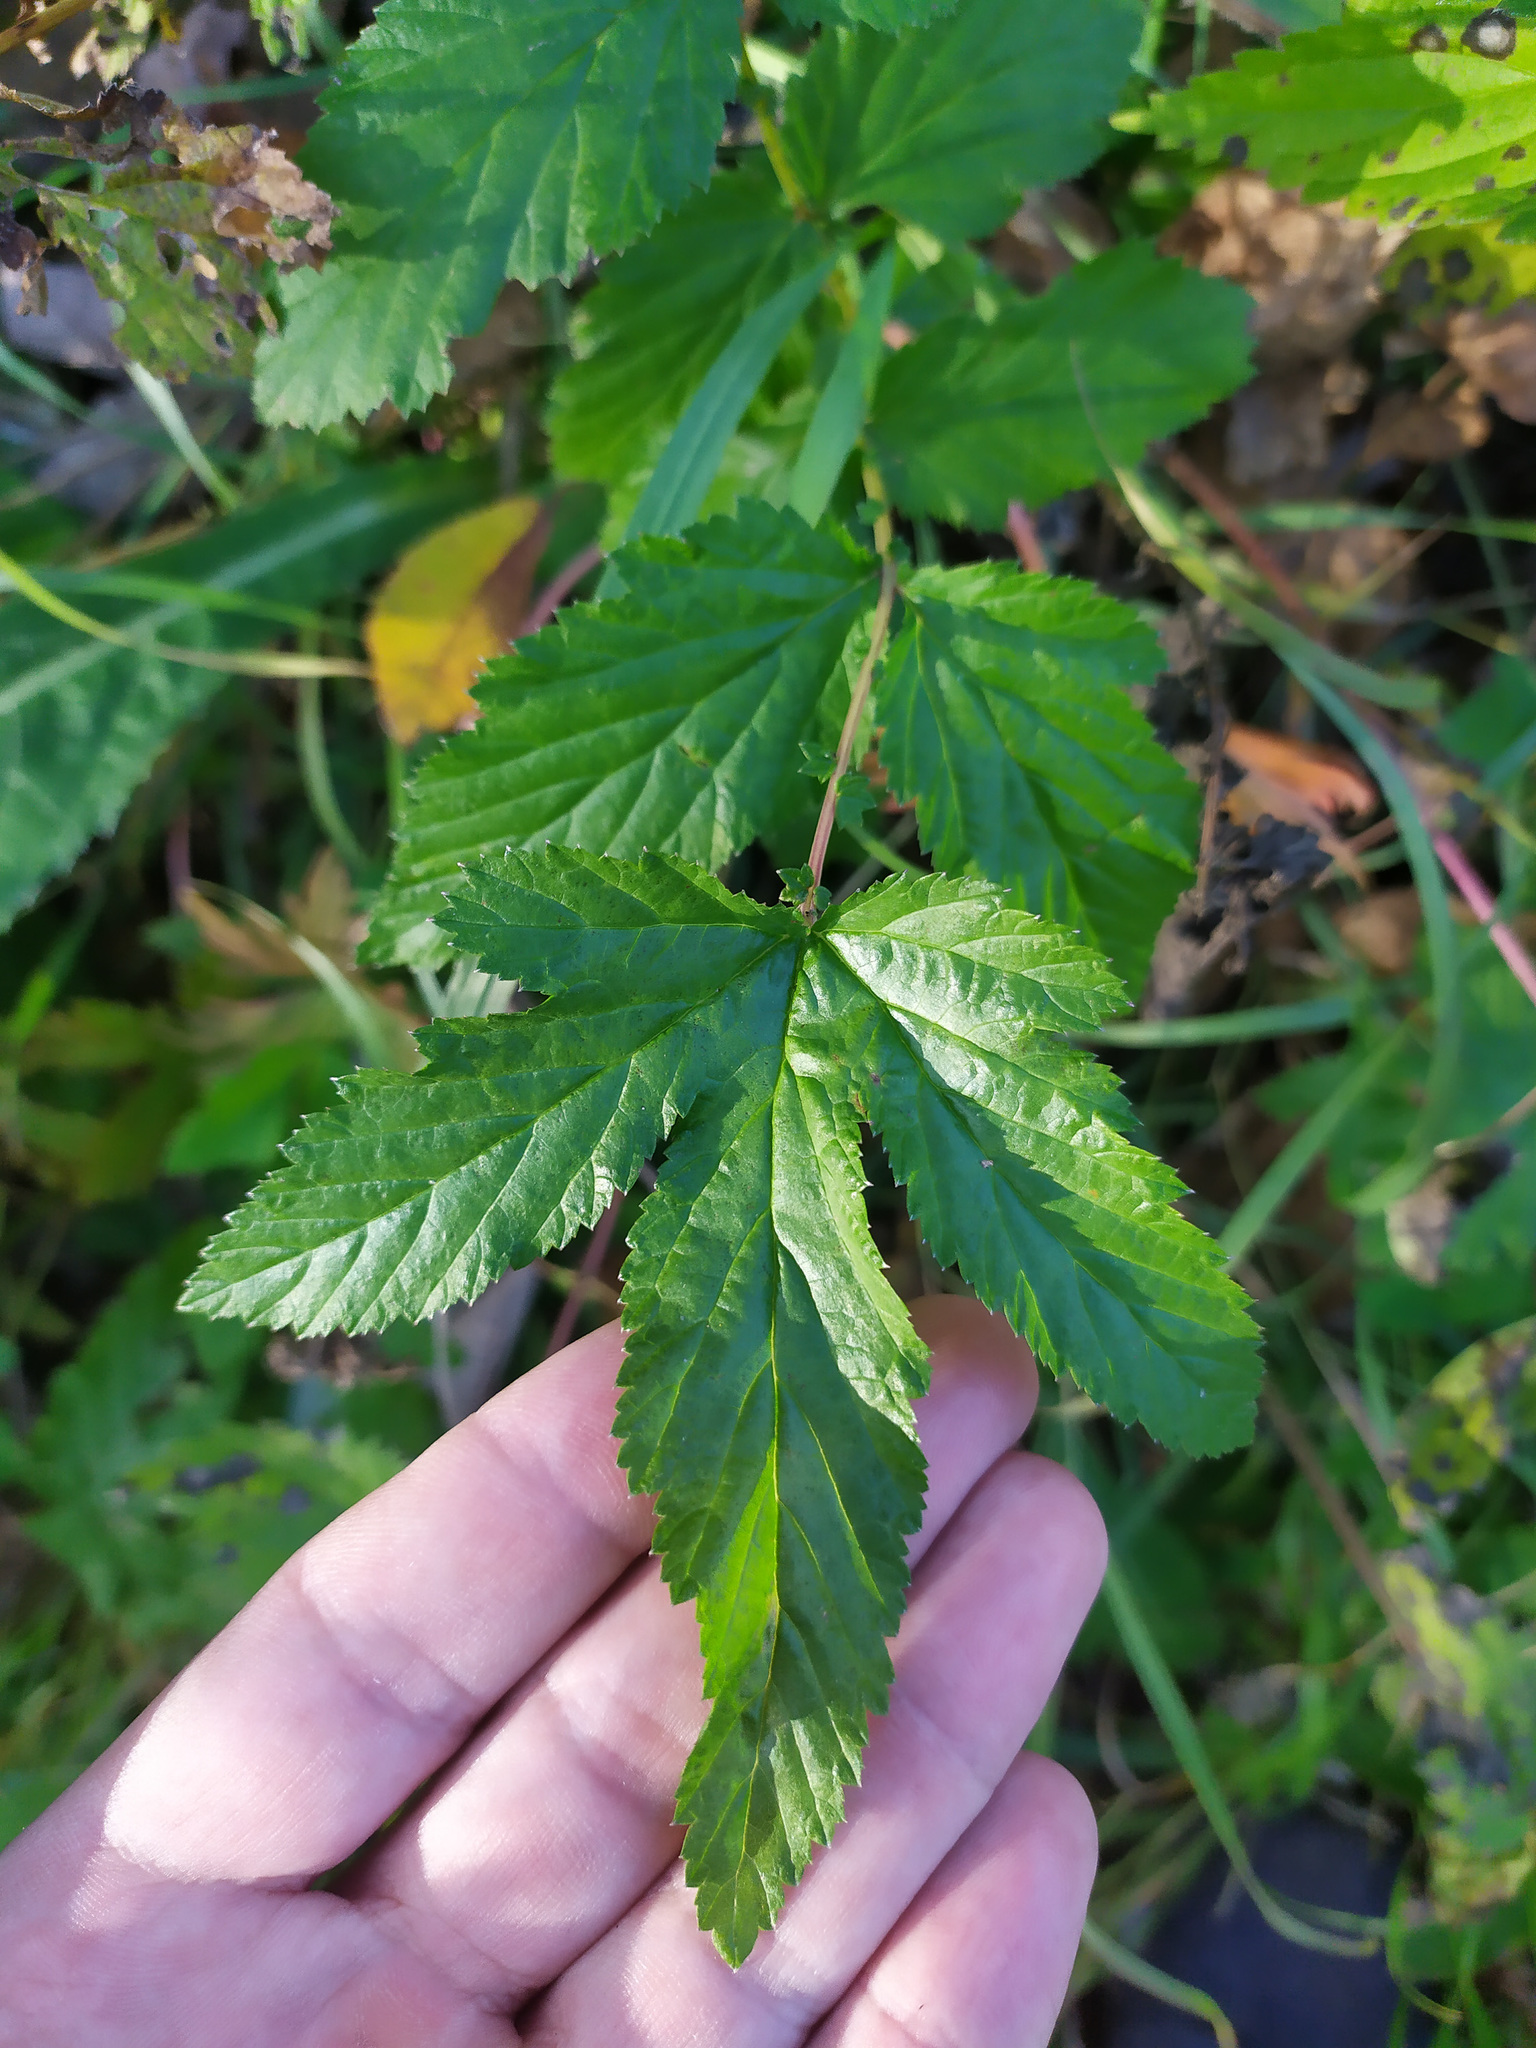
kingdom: Plantae
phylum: Tracheophyta
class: Magnoliopsida
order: Rosales
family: Rosaceae
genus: Filipendula
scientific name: Filipendula ulmaria
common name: Meadowsweet
